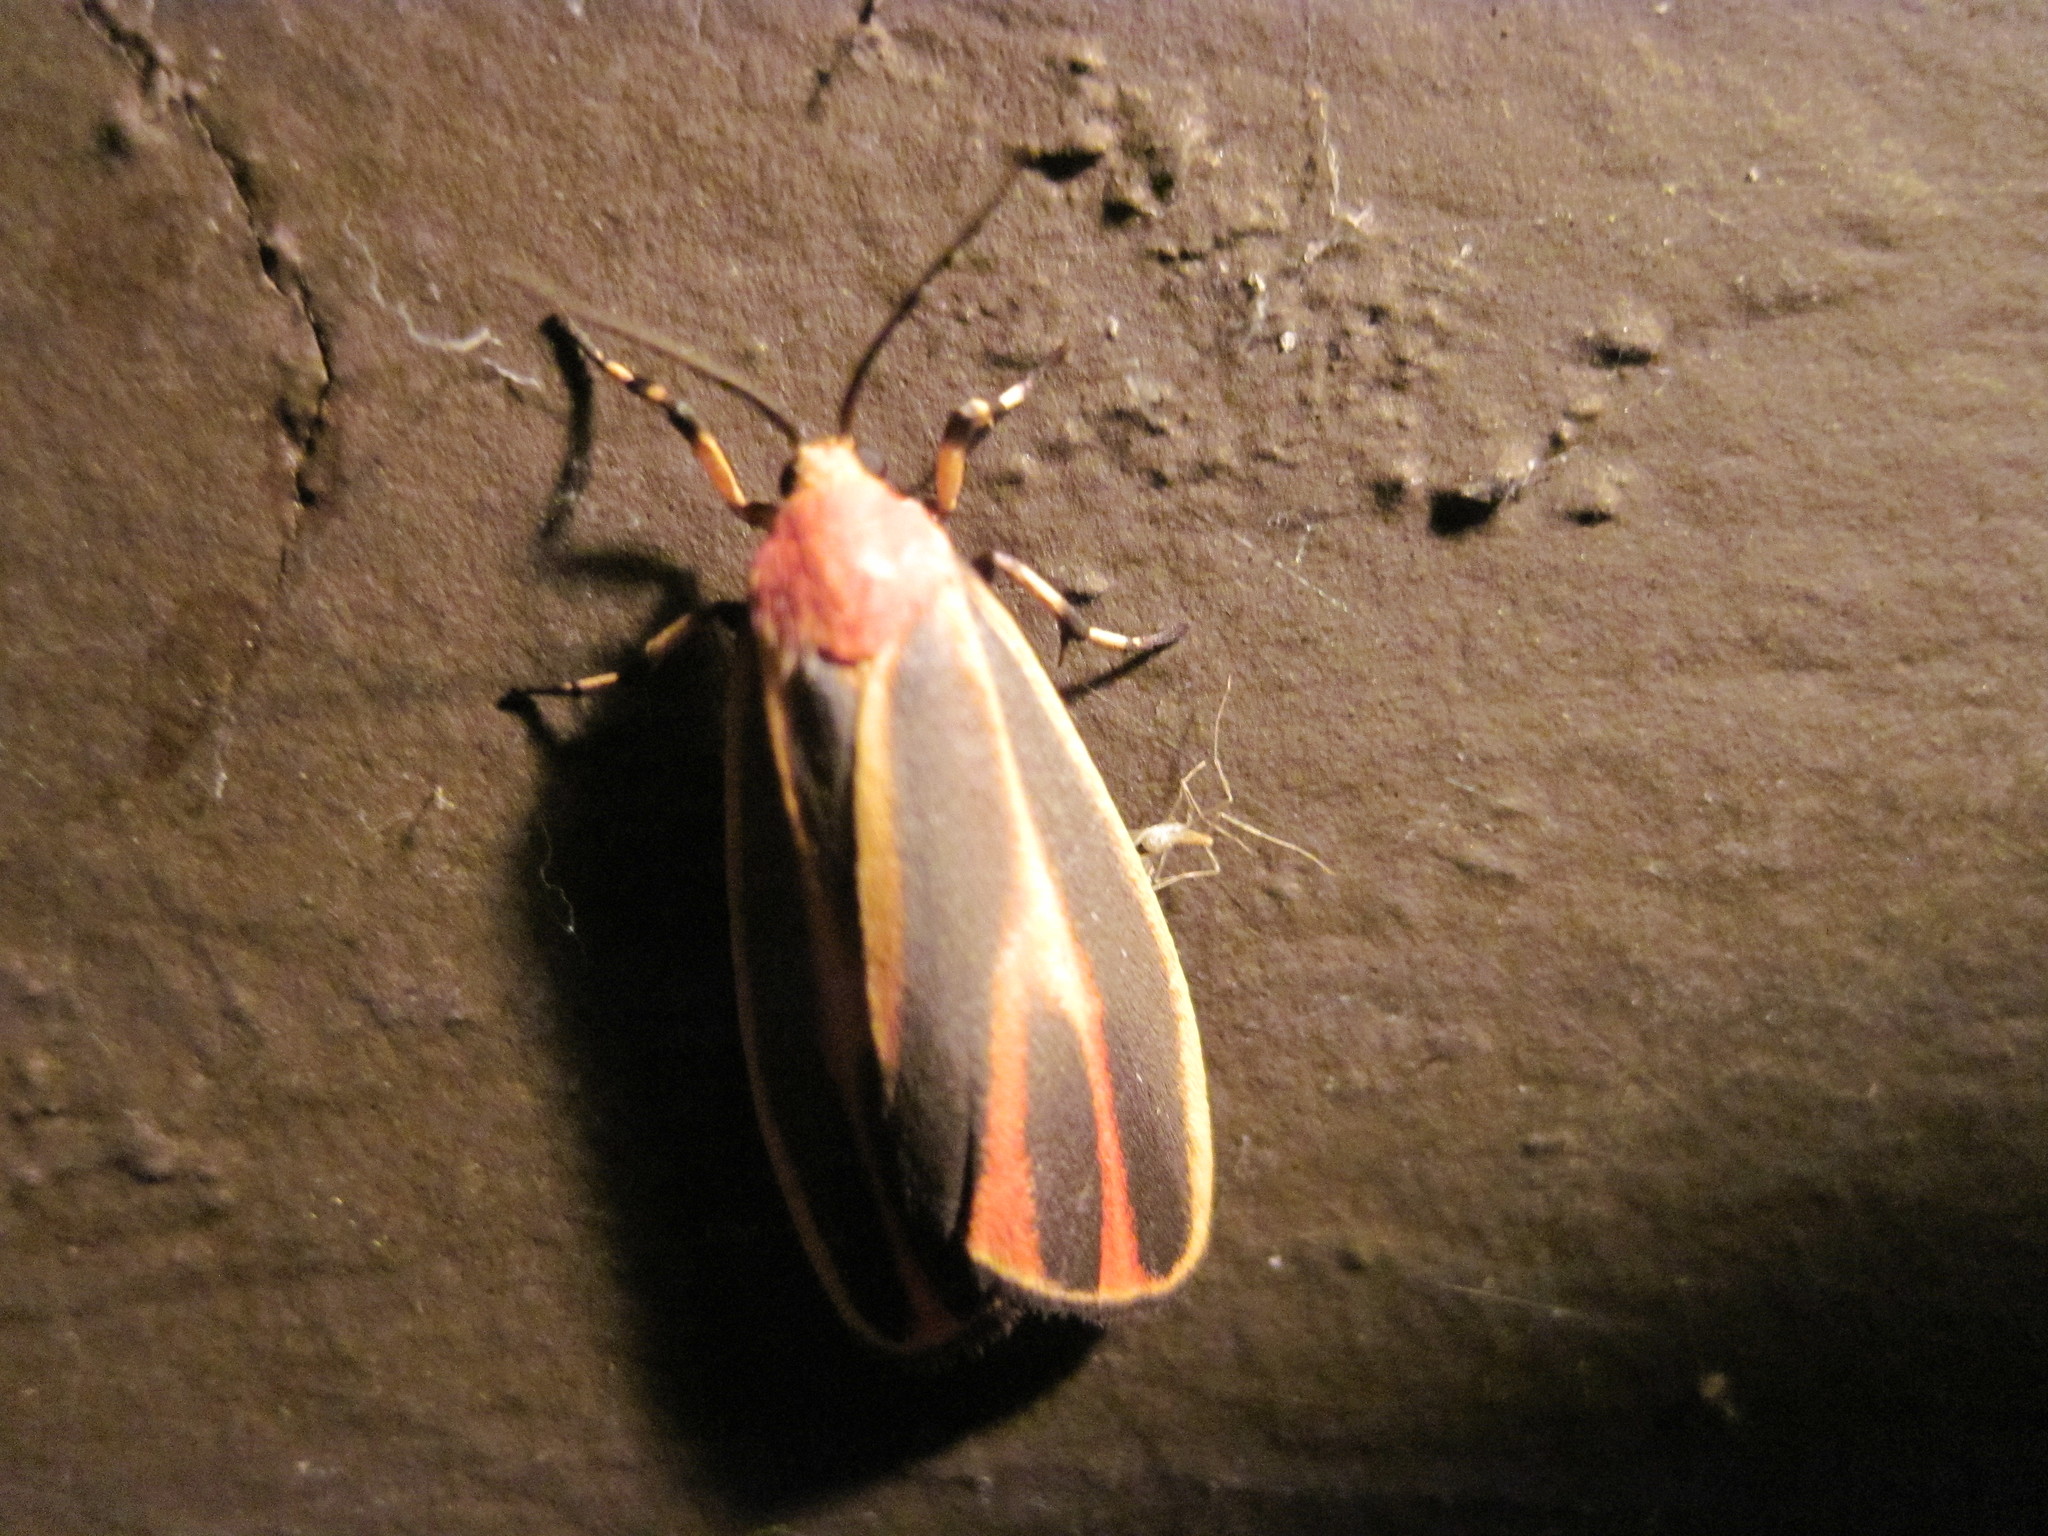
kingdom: Animalia
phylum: Arthropoda
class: Insecta
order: Lepidoptera
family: Erebidae
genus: Hypoprepia
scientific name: Hypoprepia fucosa
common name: Painted lichen moth
